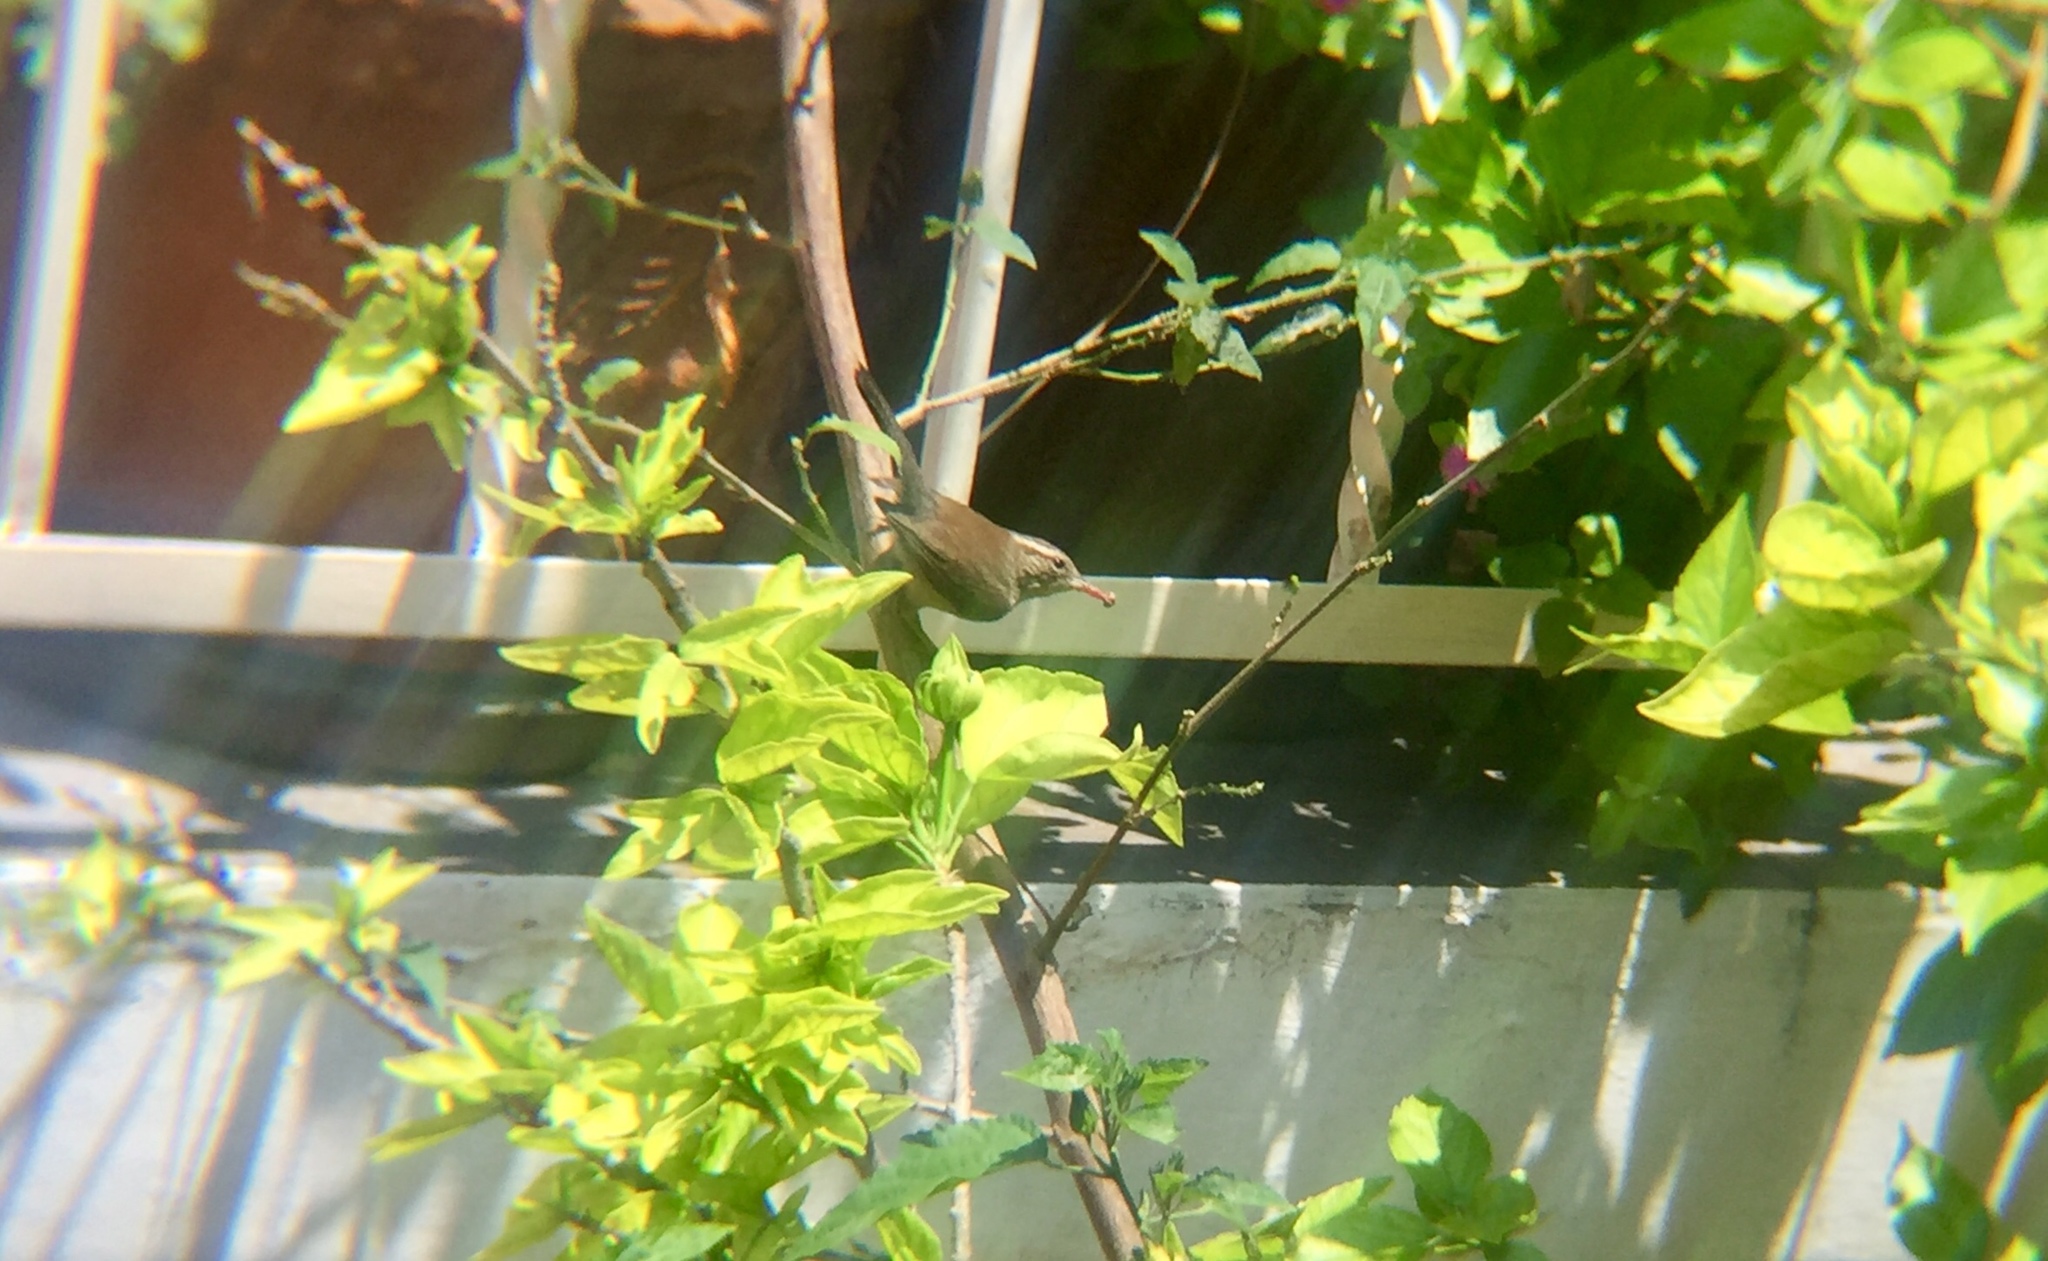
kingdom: Animalia
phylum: Chordata
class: Aves
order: Passeriformes
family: Troglodytidae
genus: Thryomanes
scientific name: Thryomanes bewickii
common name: Bewick's wren
